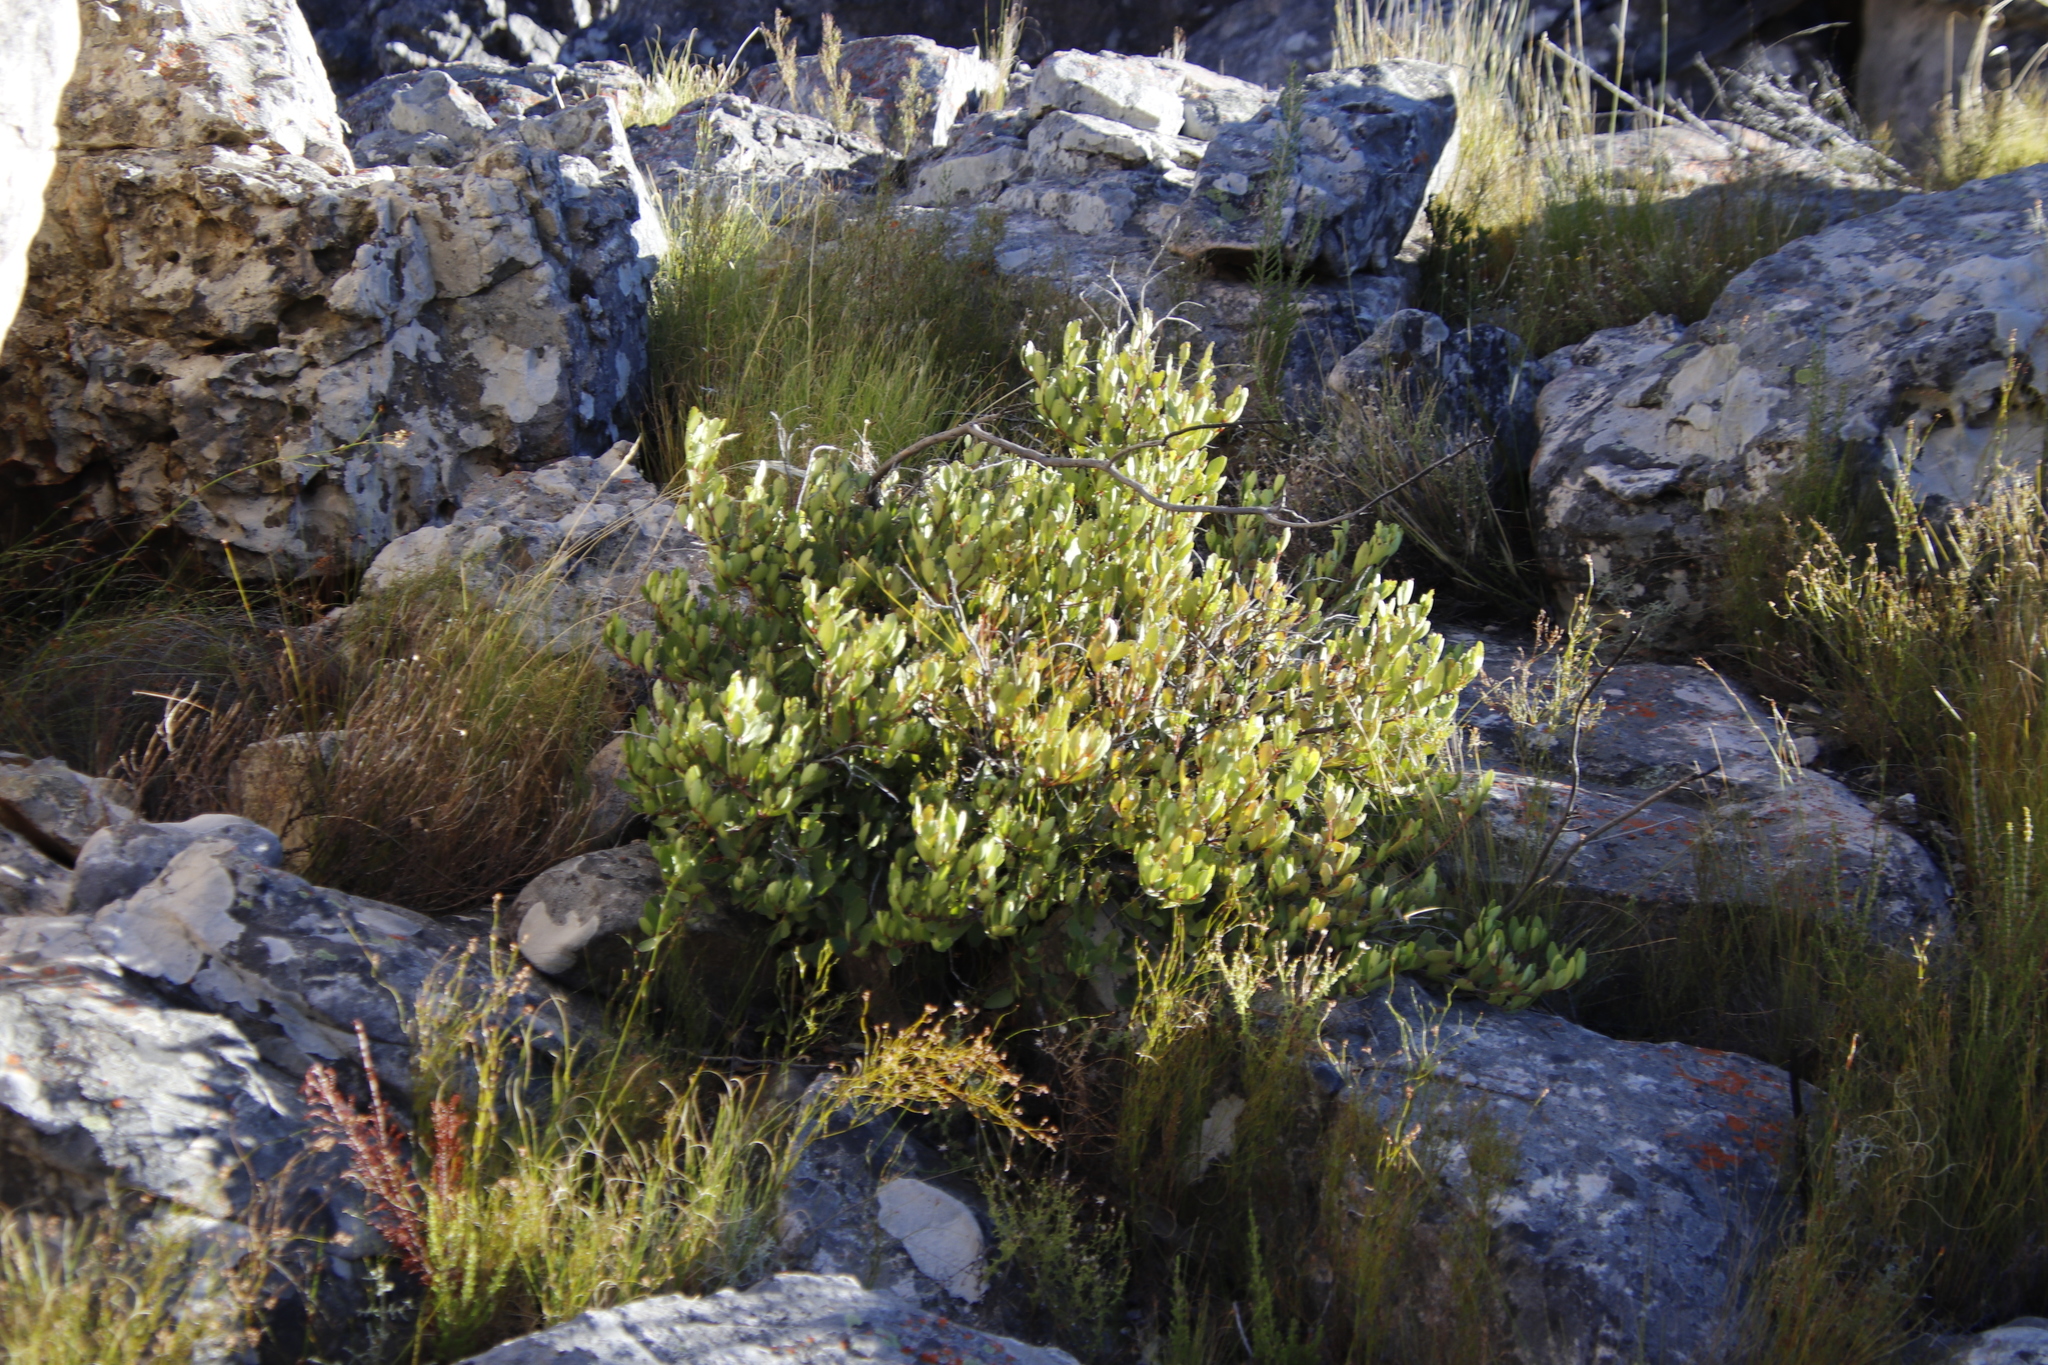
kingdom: Plantae
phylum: Tracheophyta
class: Magnoliopsida
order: Celastrales
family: Celastraceae
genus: Gymnosporia
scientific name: Gymnosporia laurina
